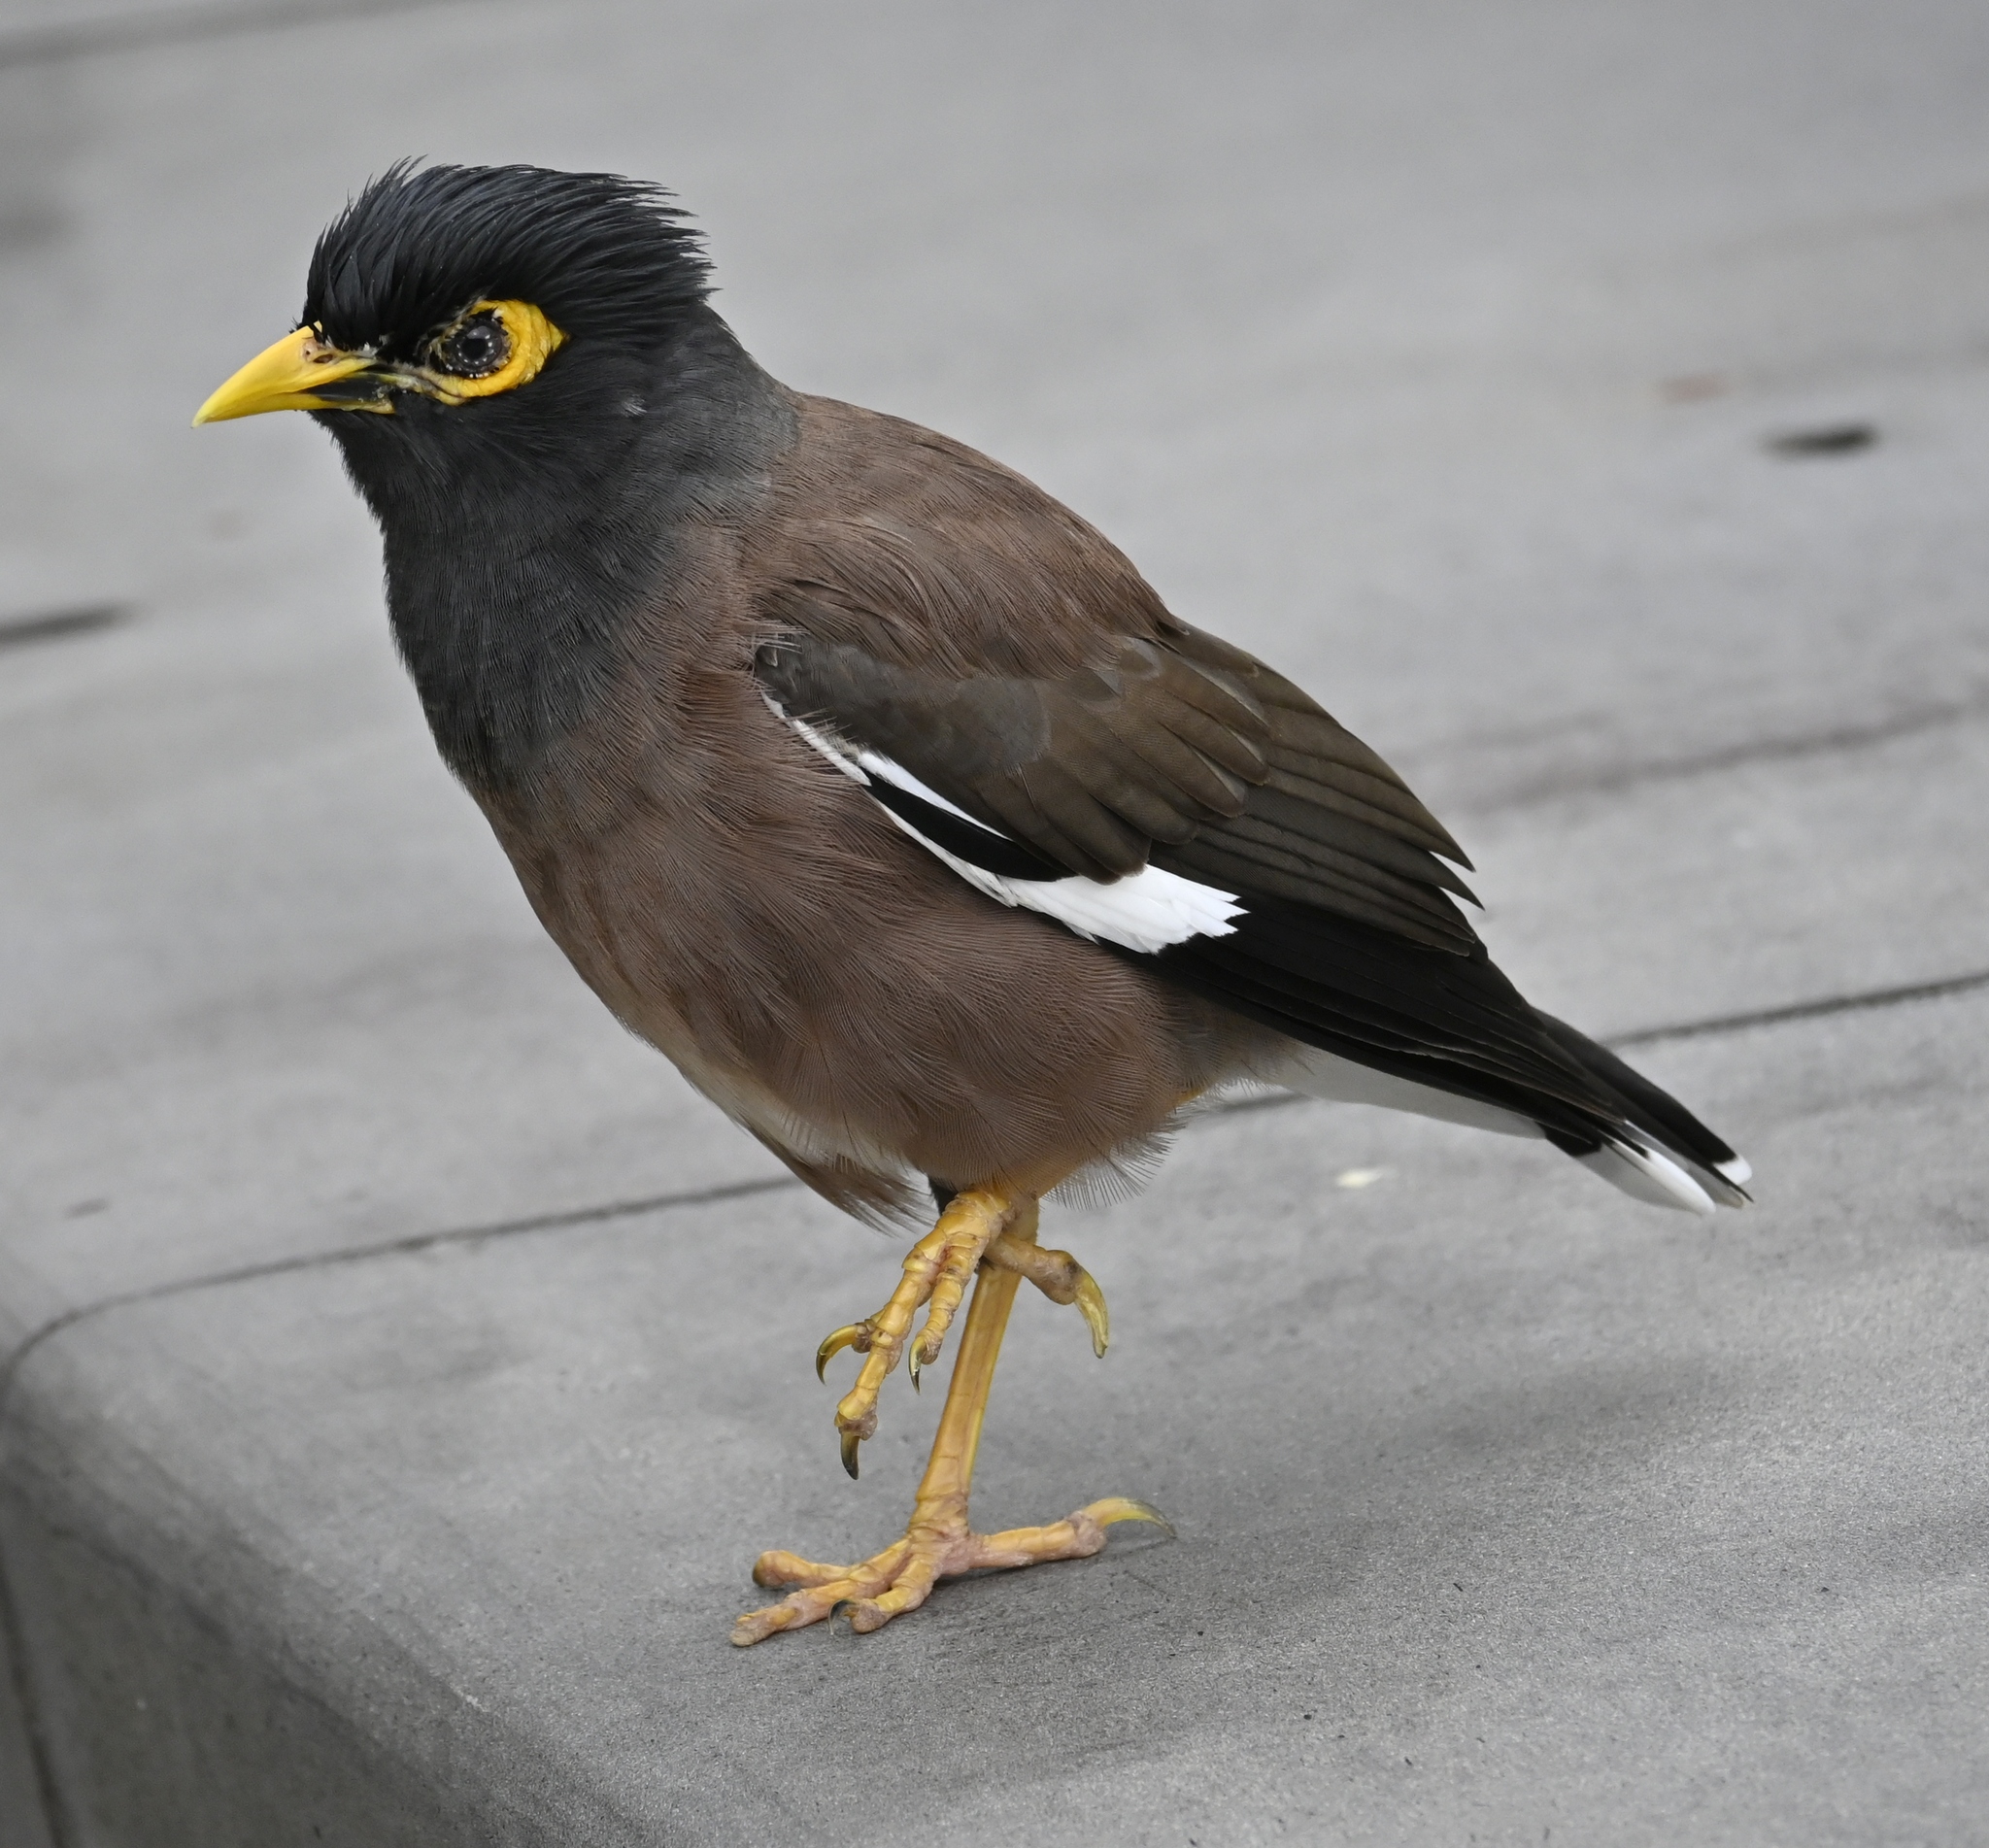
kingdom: Animalia
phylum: Chordata
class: Aves
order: Passeriformes
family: Sturnidae
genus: Acridotheres
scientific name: Acridotheres tristis
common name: Common myna
